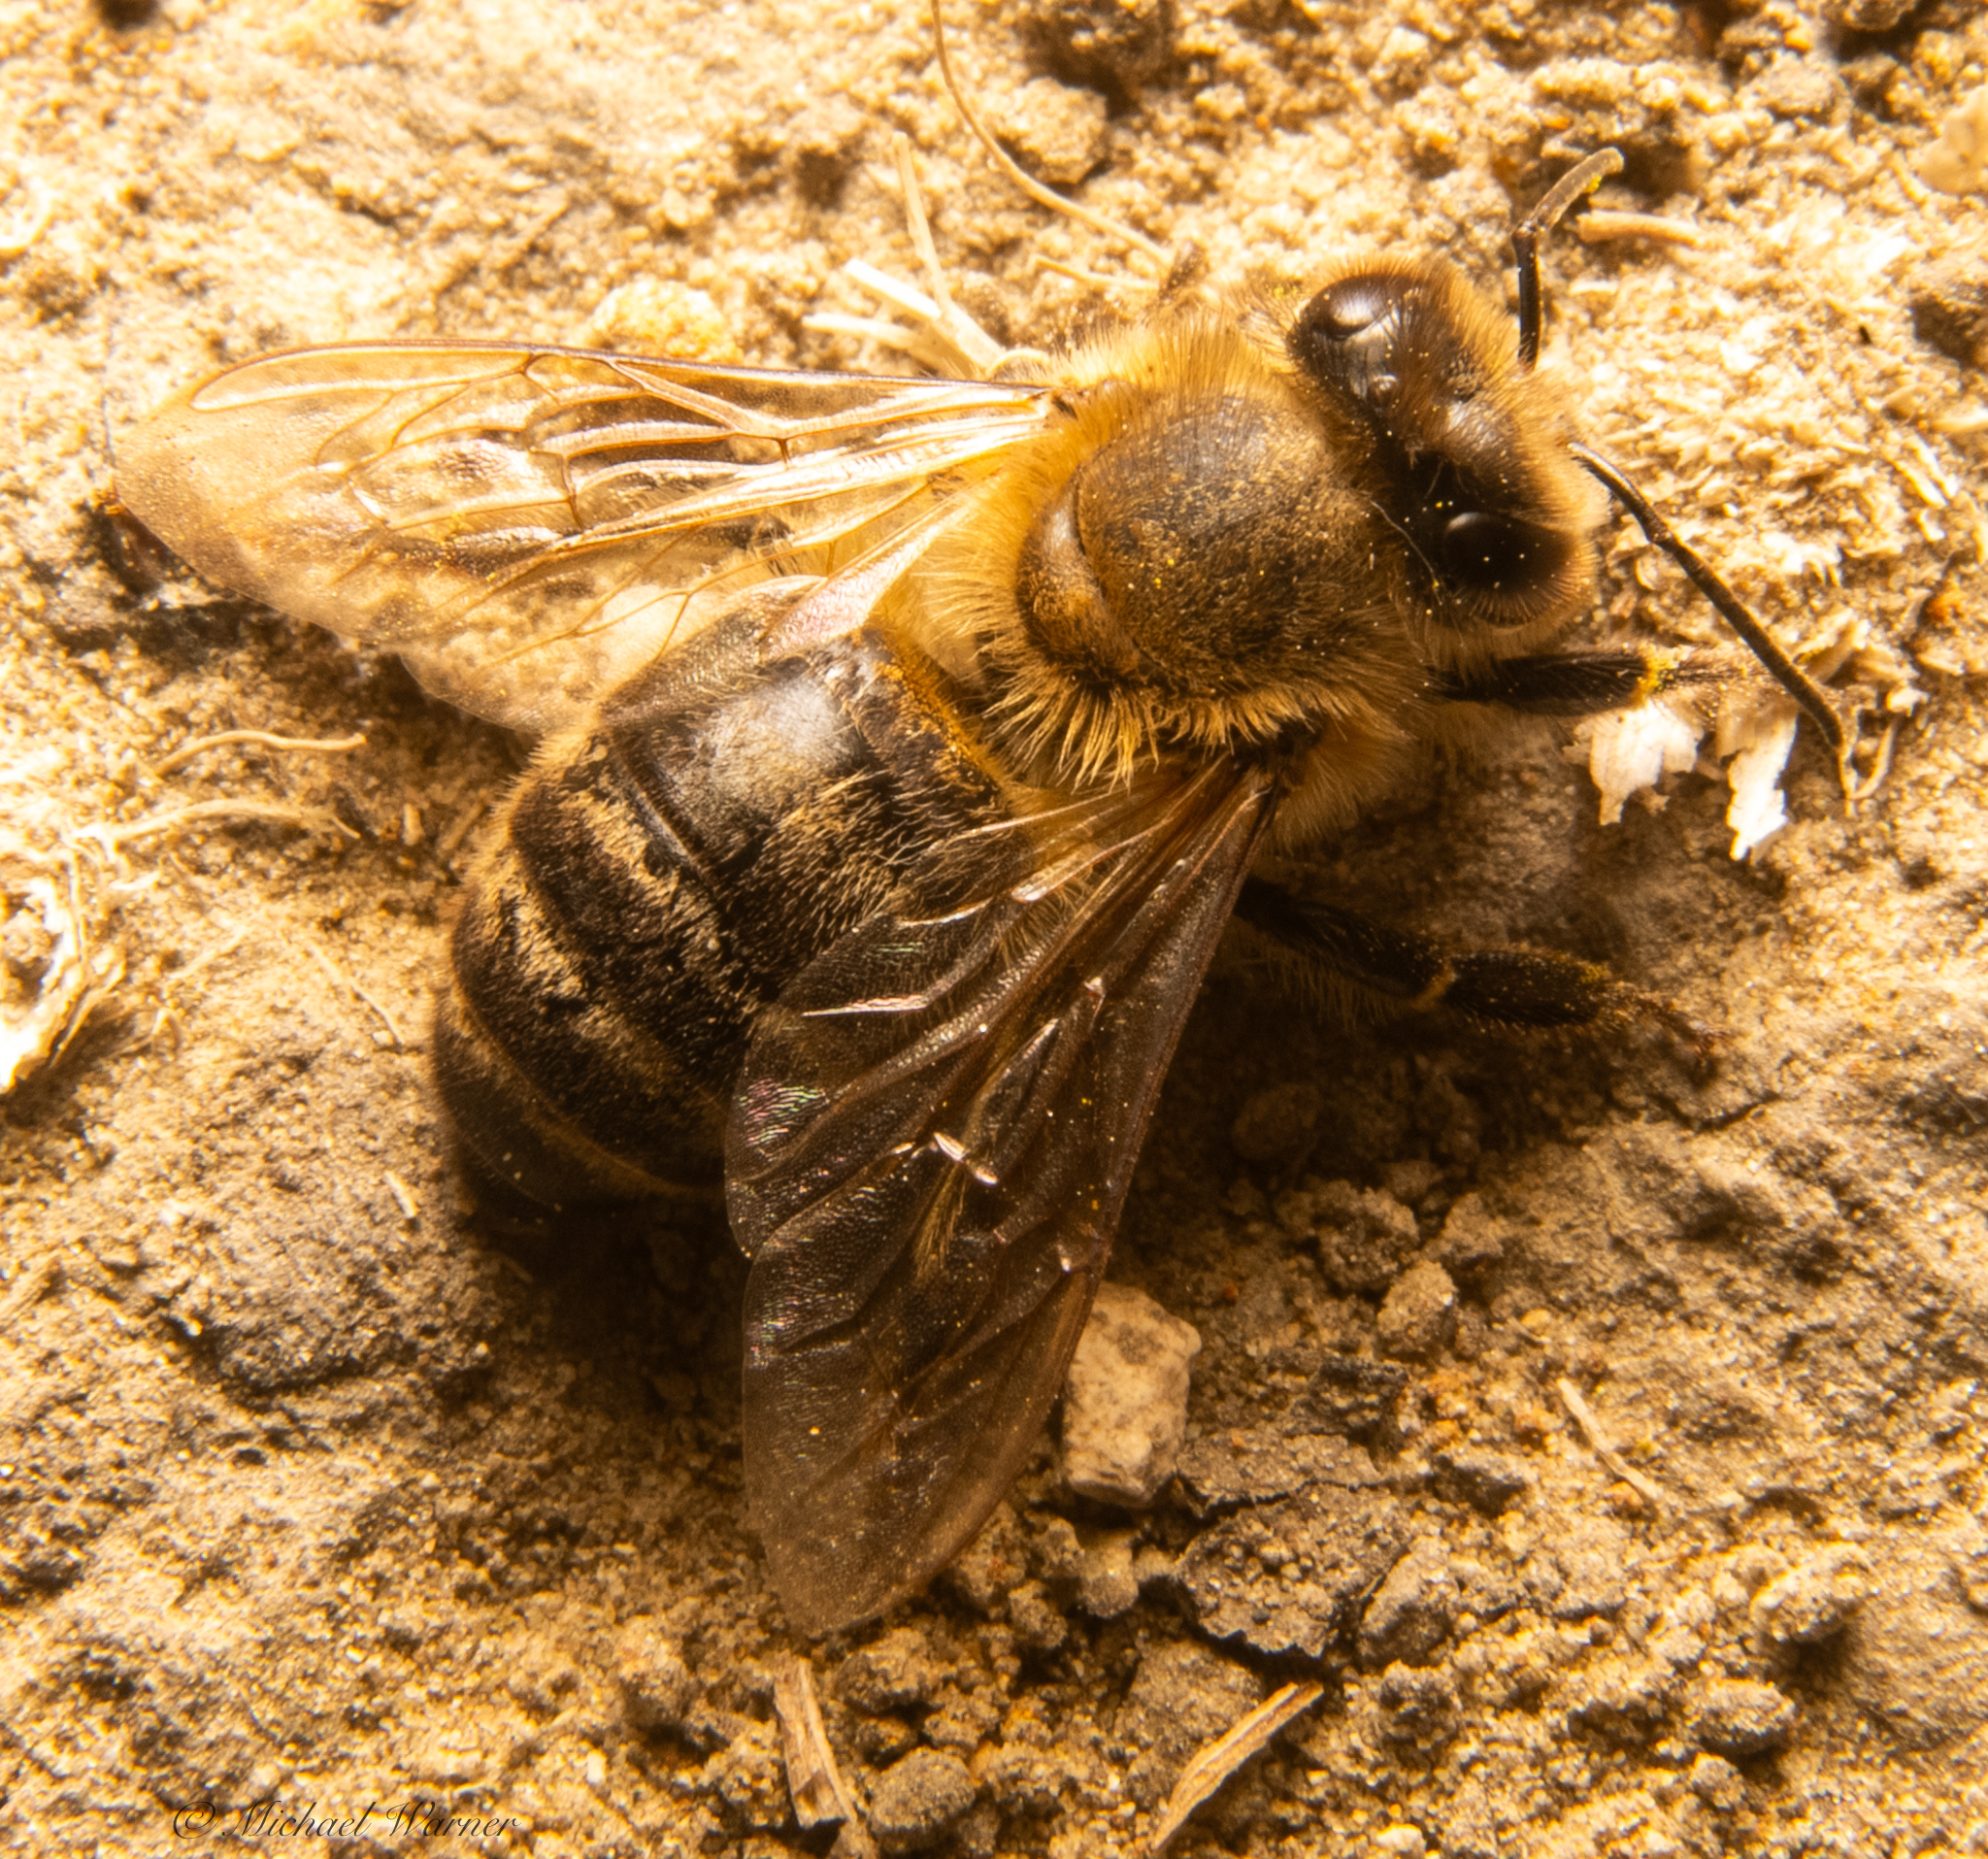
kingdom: Animalia
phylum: Arthropoda
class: Insecta
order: Hymenoptera
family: Apidae
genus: Apis
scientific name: Apis mellifera
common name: Honey bee
